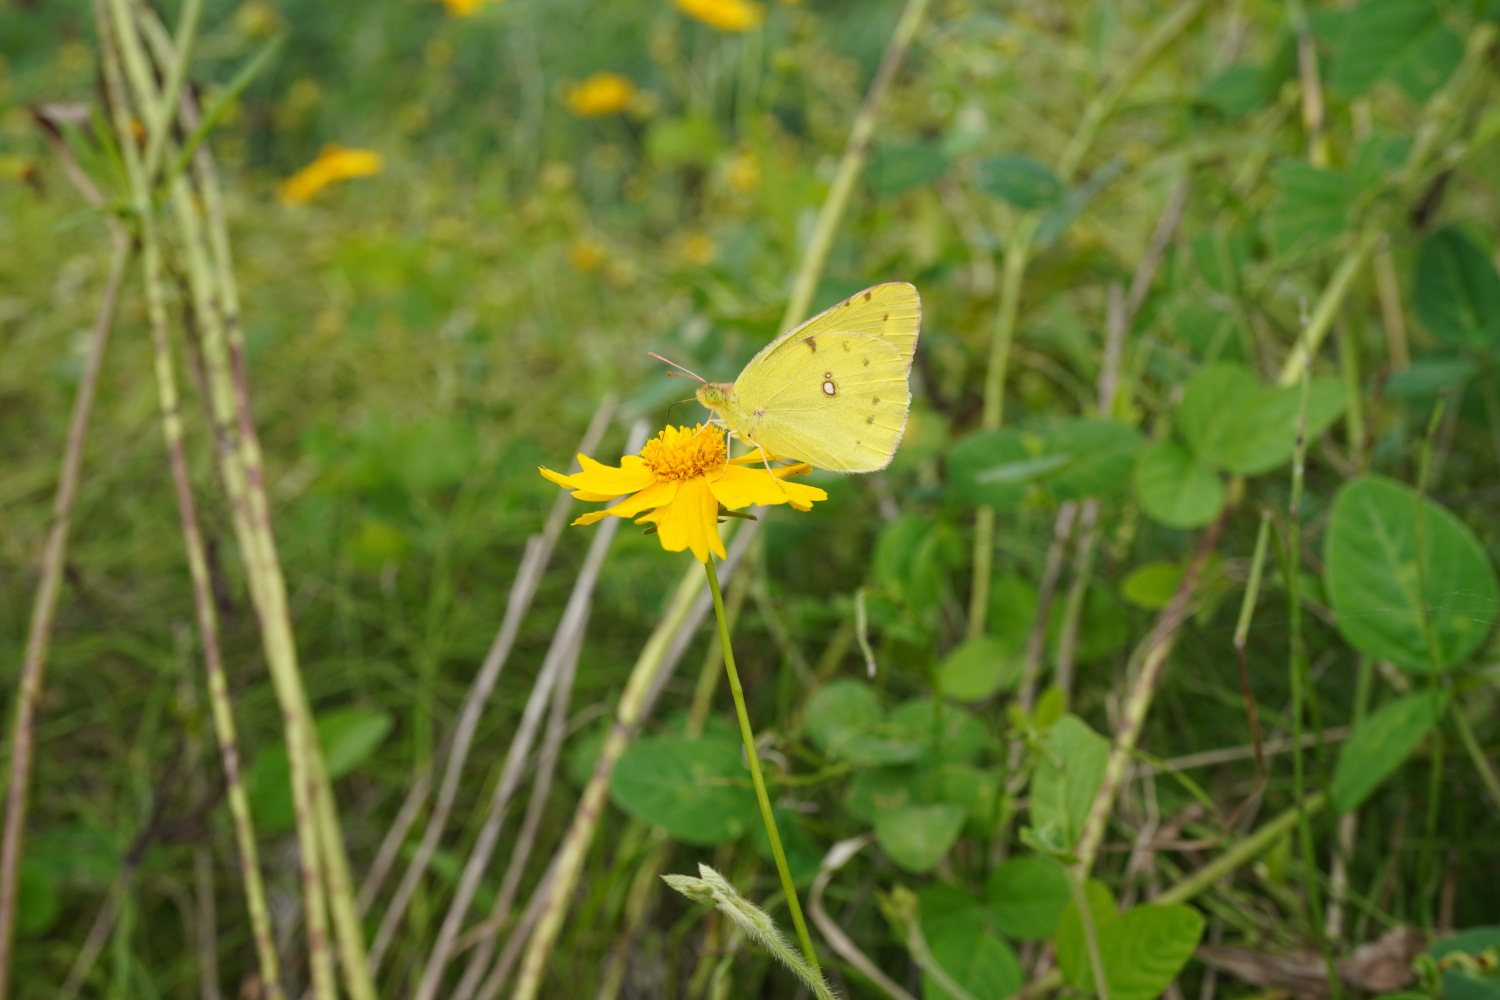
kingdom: Animalia
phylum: Arthropoda
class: Insecta
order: Lepidoptera
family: Pieridae
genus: Colias
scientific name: Colias poliographus
